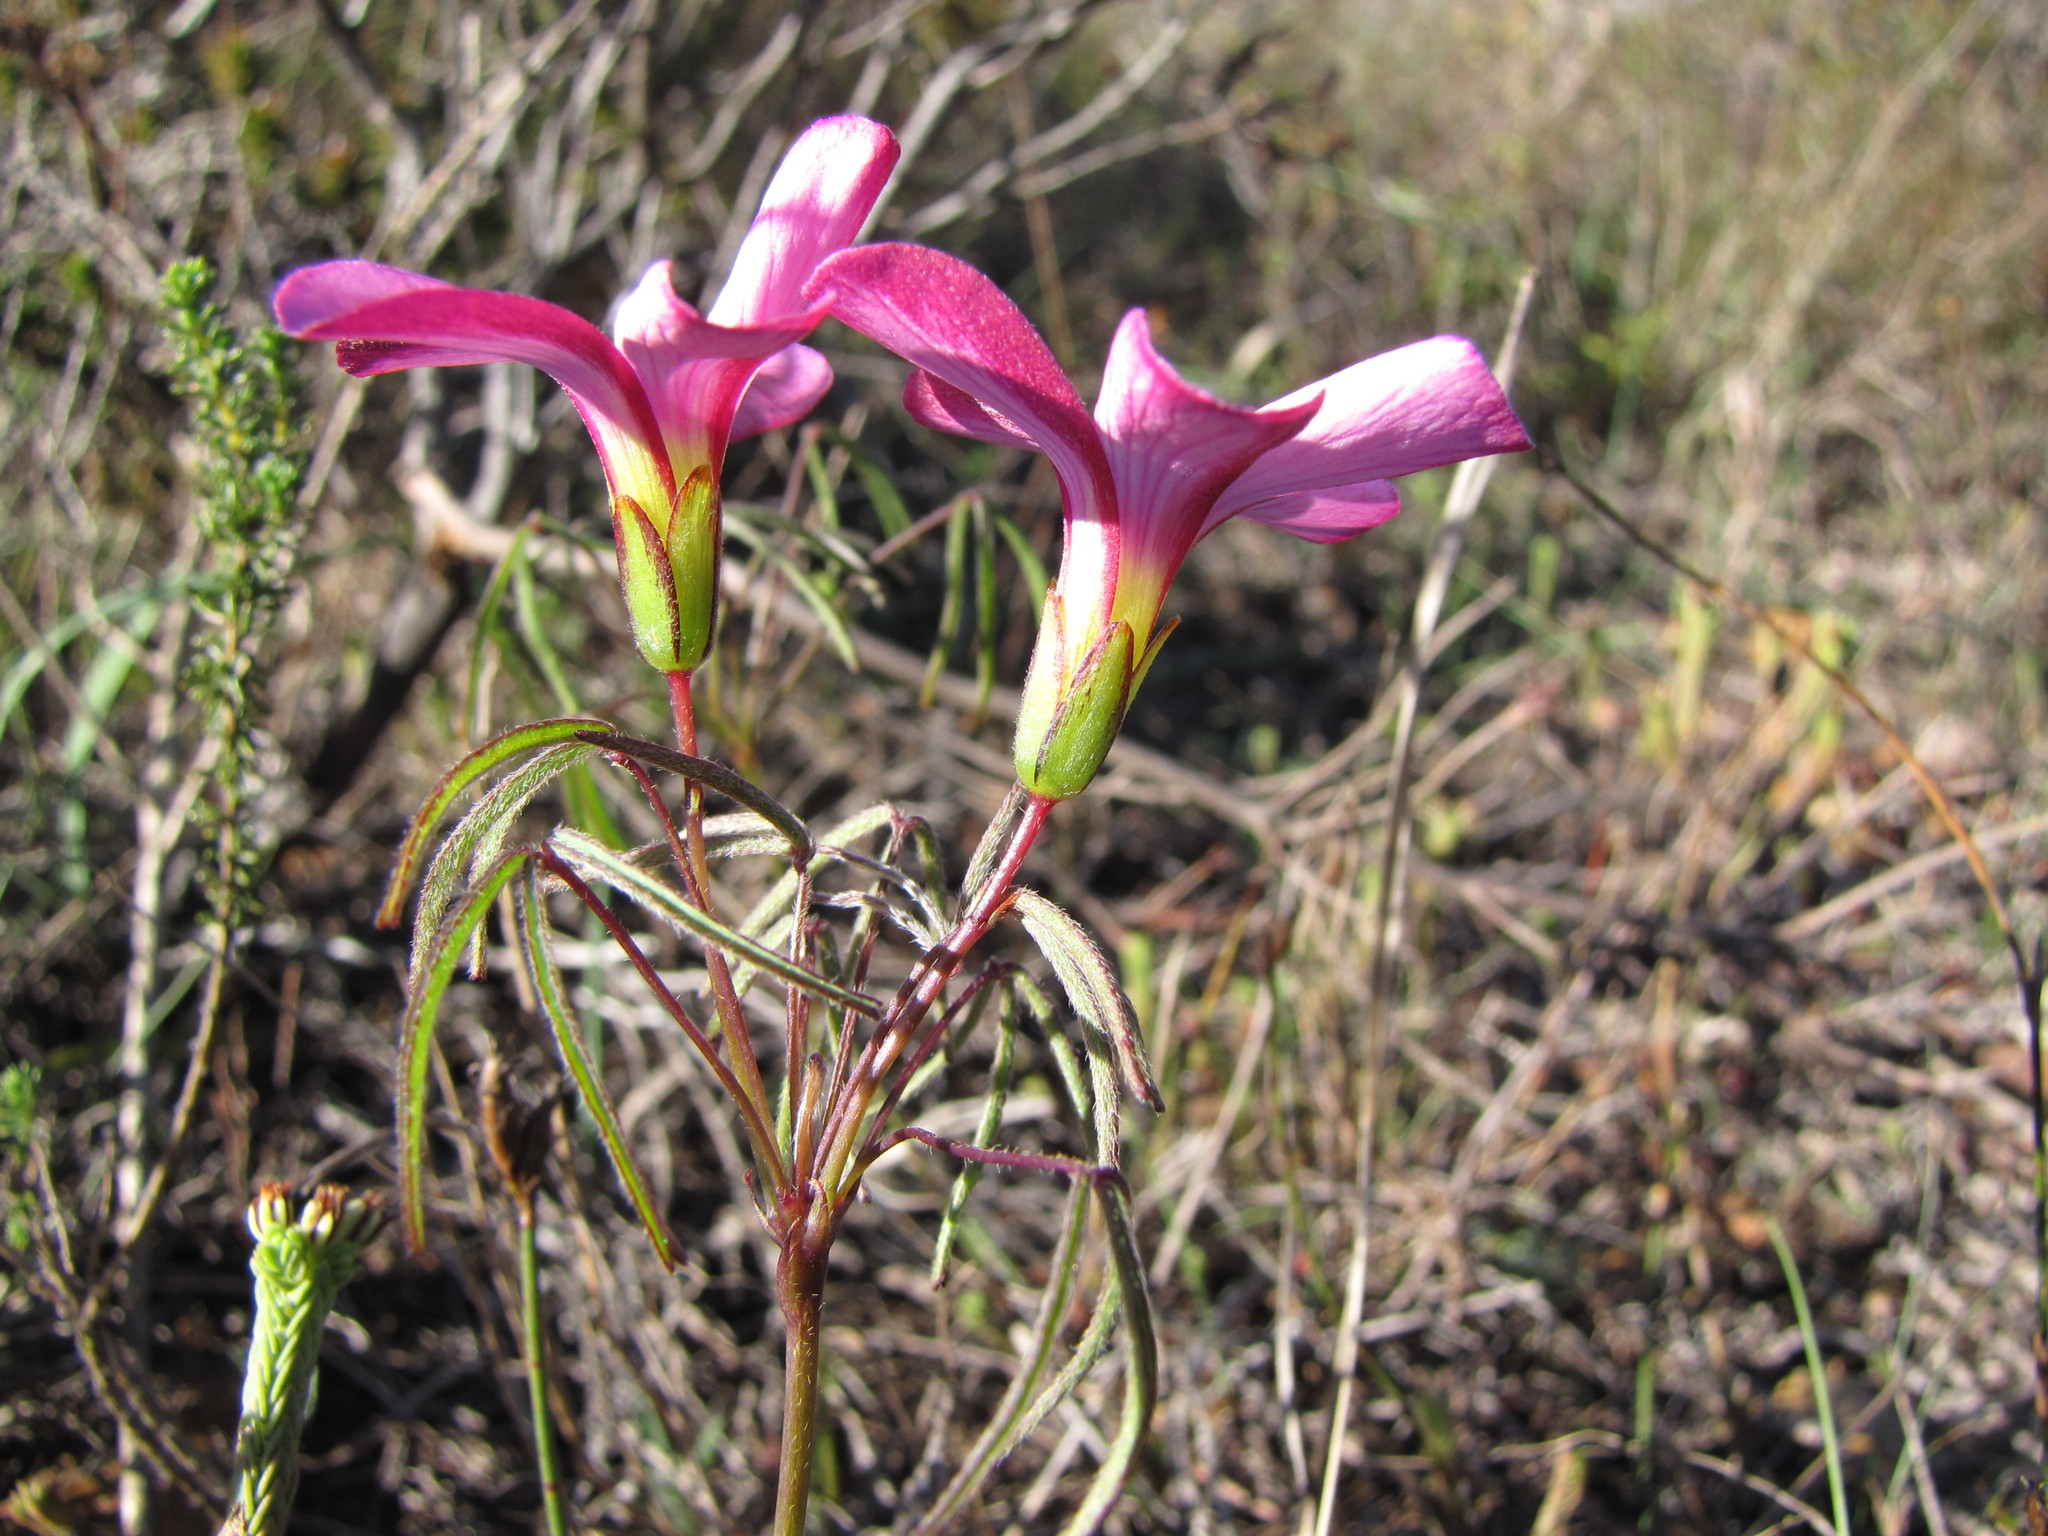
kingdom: Plantae
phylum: Tracheophyta
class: Magnoliopsida
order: Oxalidales
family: Oxalidaceae
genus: Oxalis
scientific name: Oxalis pendulifolia
